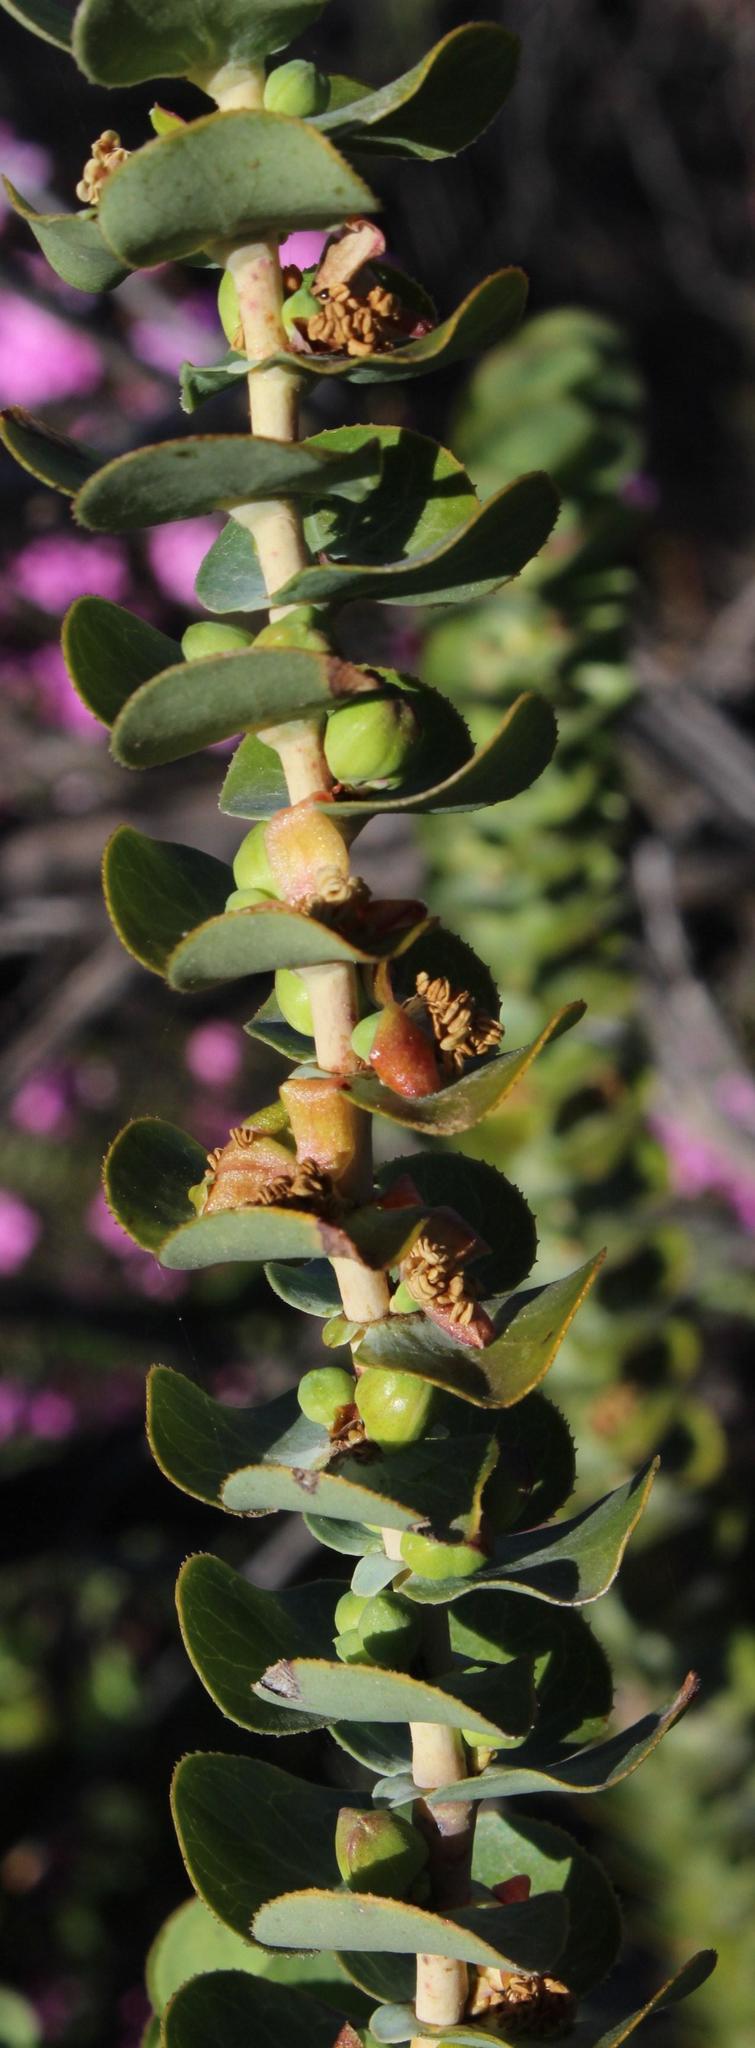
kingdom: Plantae
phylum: Tracheophyta
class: Magnoliopsida
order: Rosales
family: Rosaceae
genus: Cliffortia
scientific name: Cliffortia crenata
